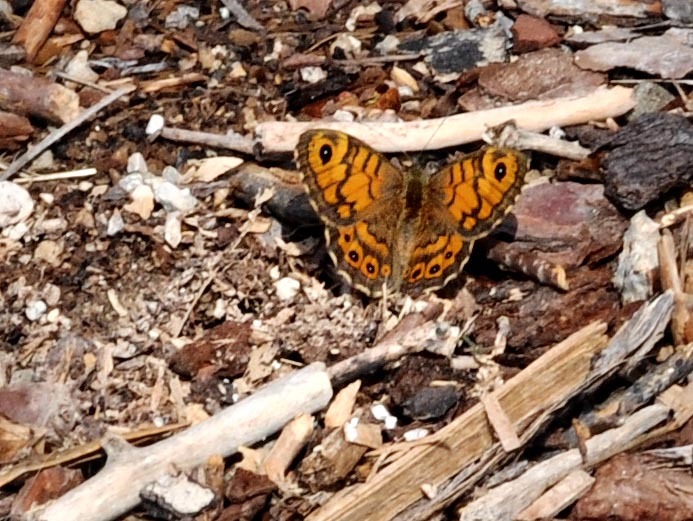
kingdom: Animalia
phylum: Arthropoda
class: Insecta
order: Lepidoptera
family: Nymphalidae
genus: Pararge
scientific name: Pararge Lasiommata megera
